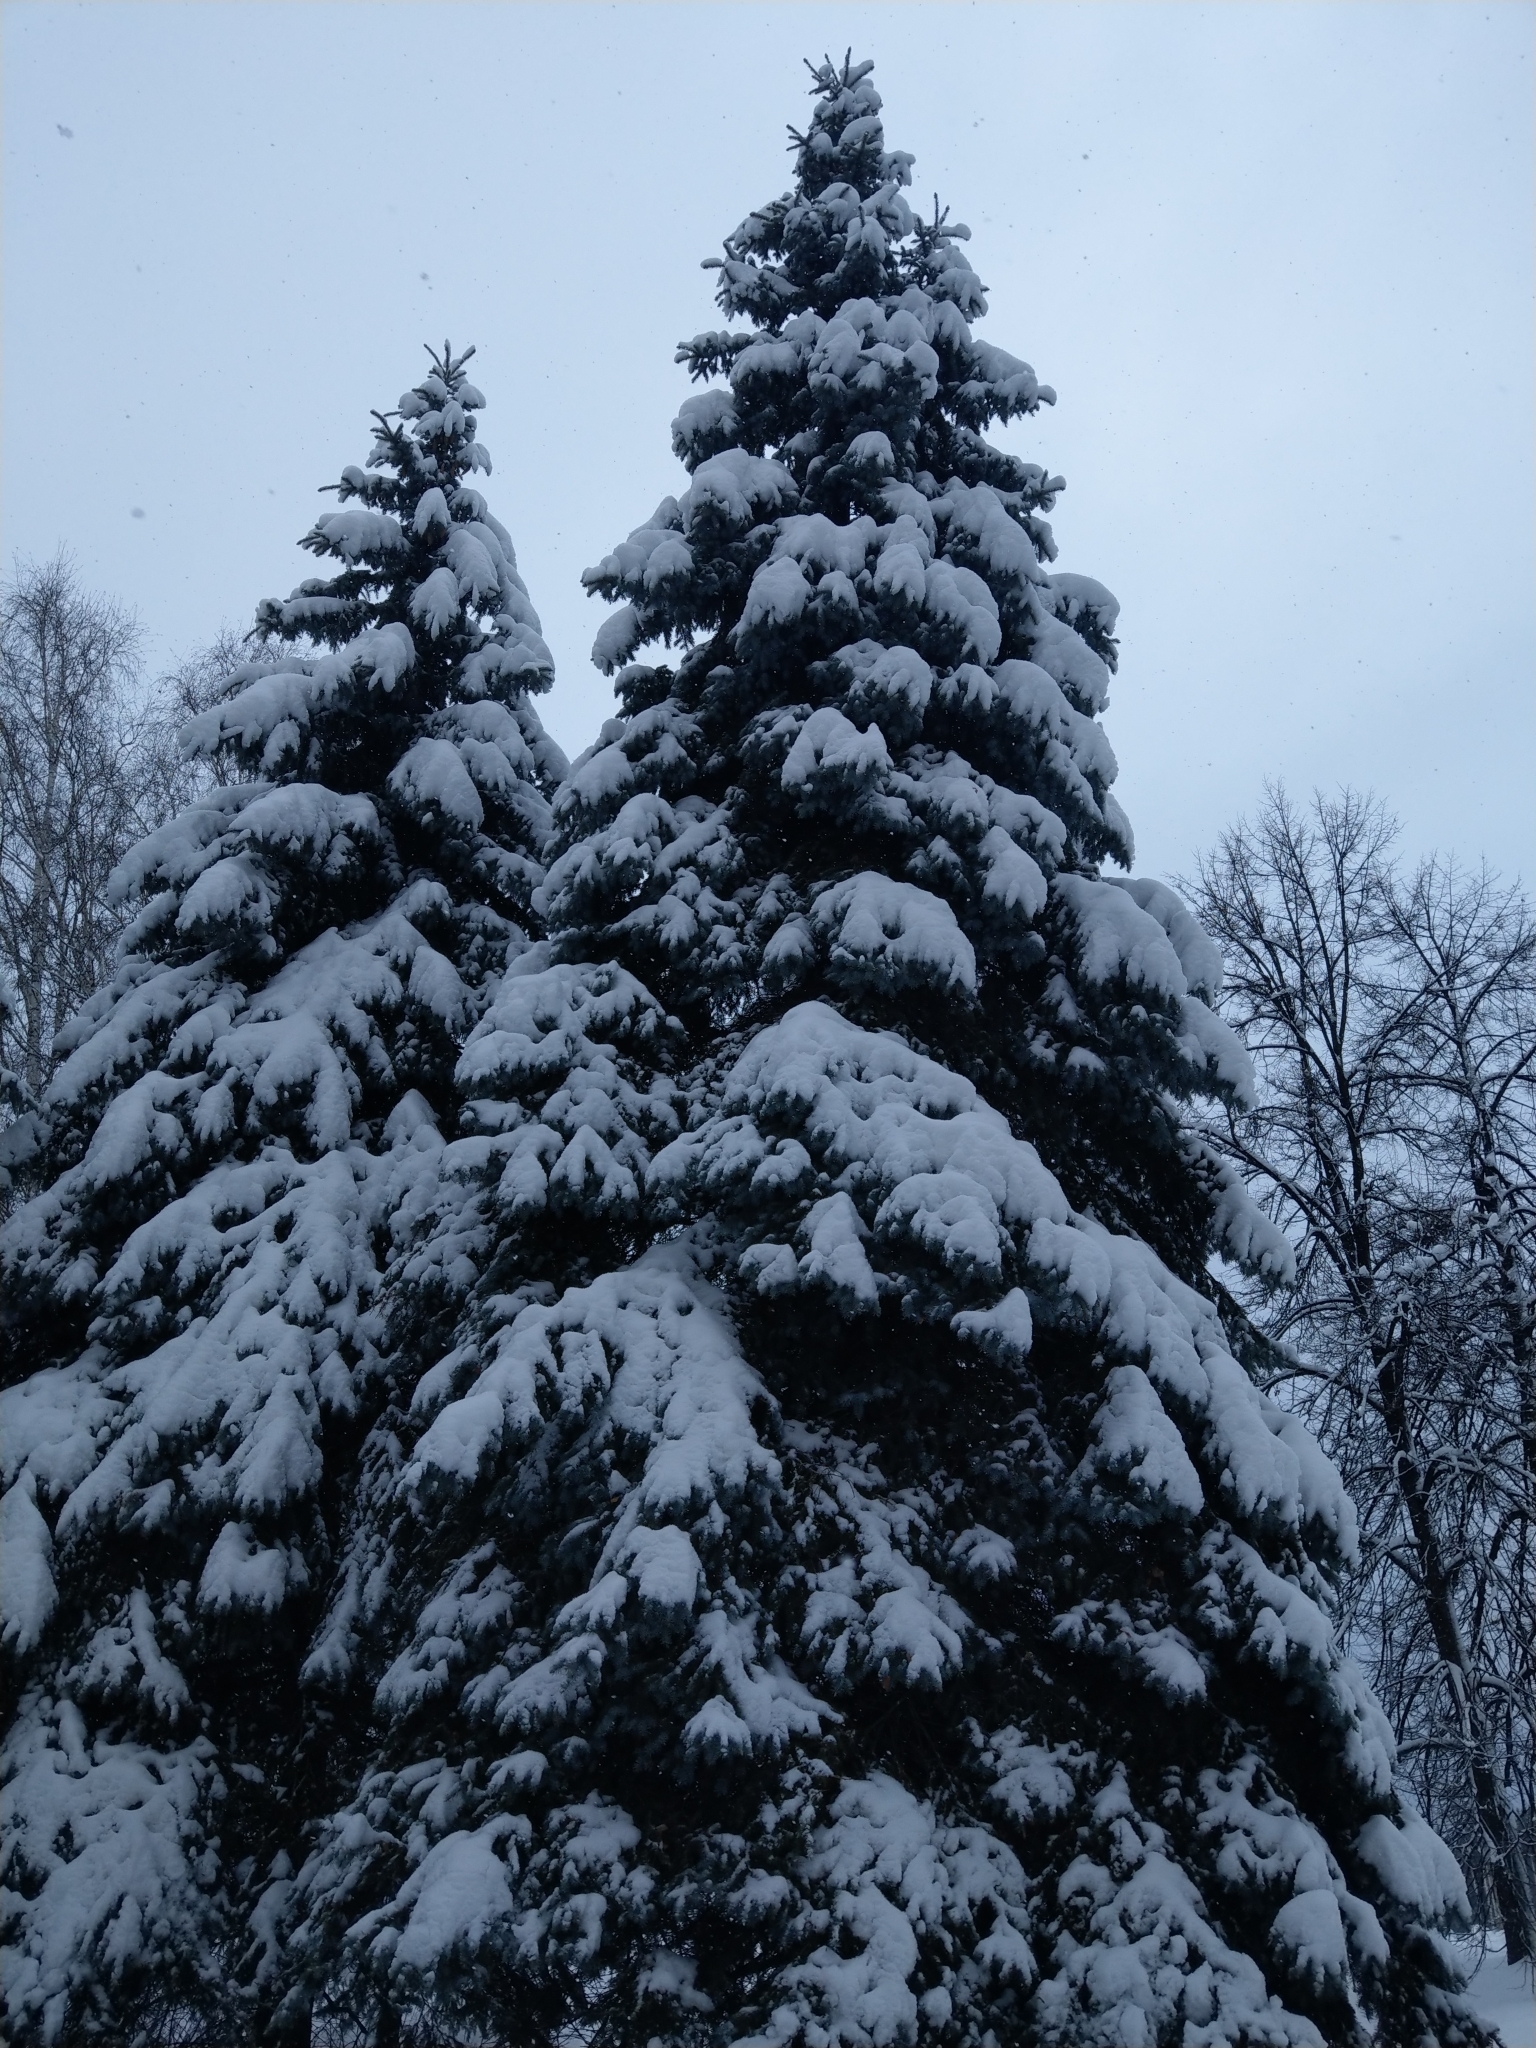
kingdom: Plantae
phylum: Tracheophyta
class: Pinopsida
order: Pinales
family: Pinaceae
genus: Picea
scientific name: Picea obovata
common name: Siberian spruce
